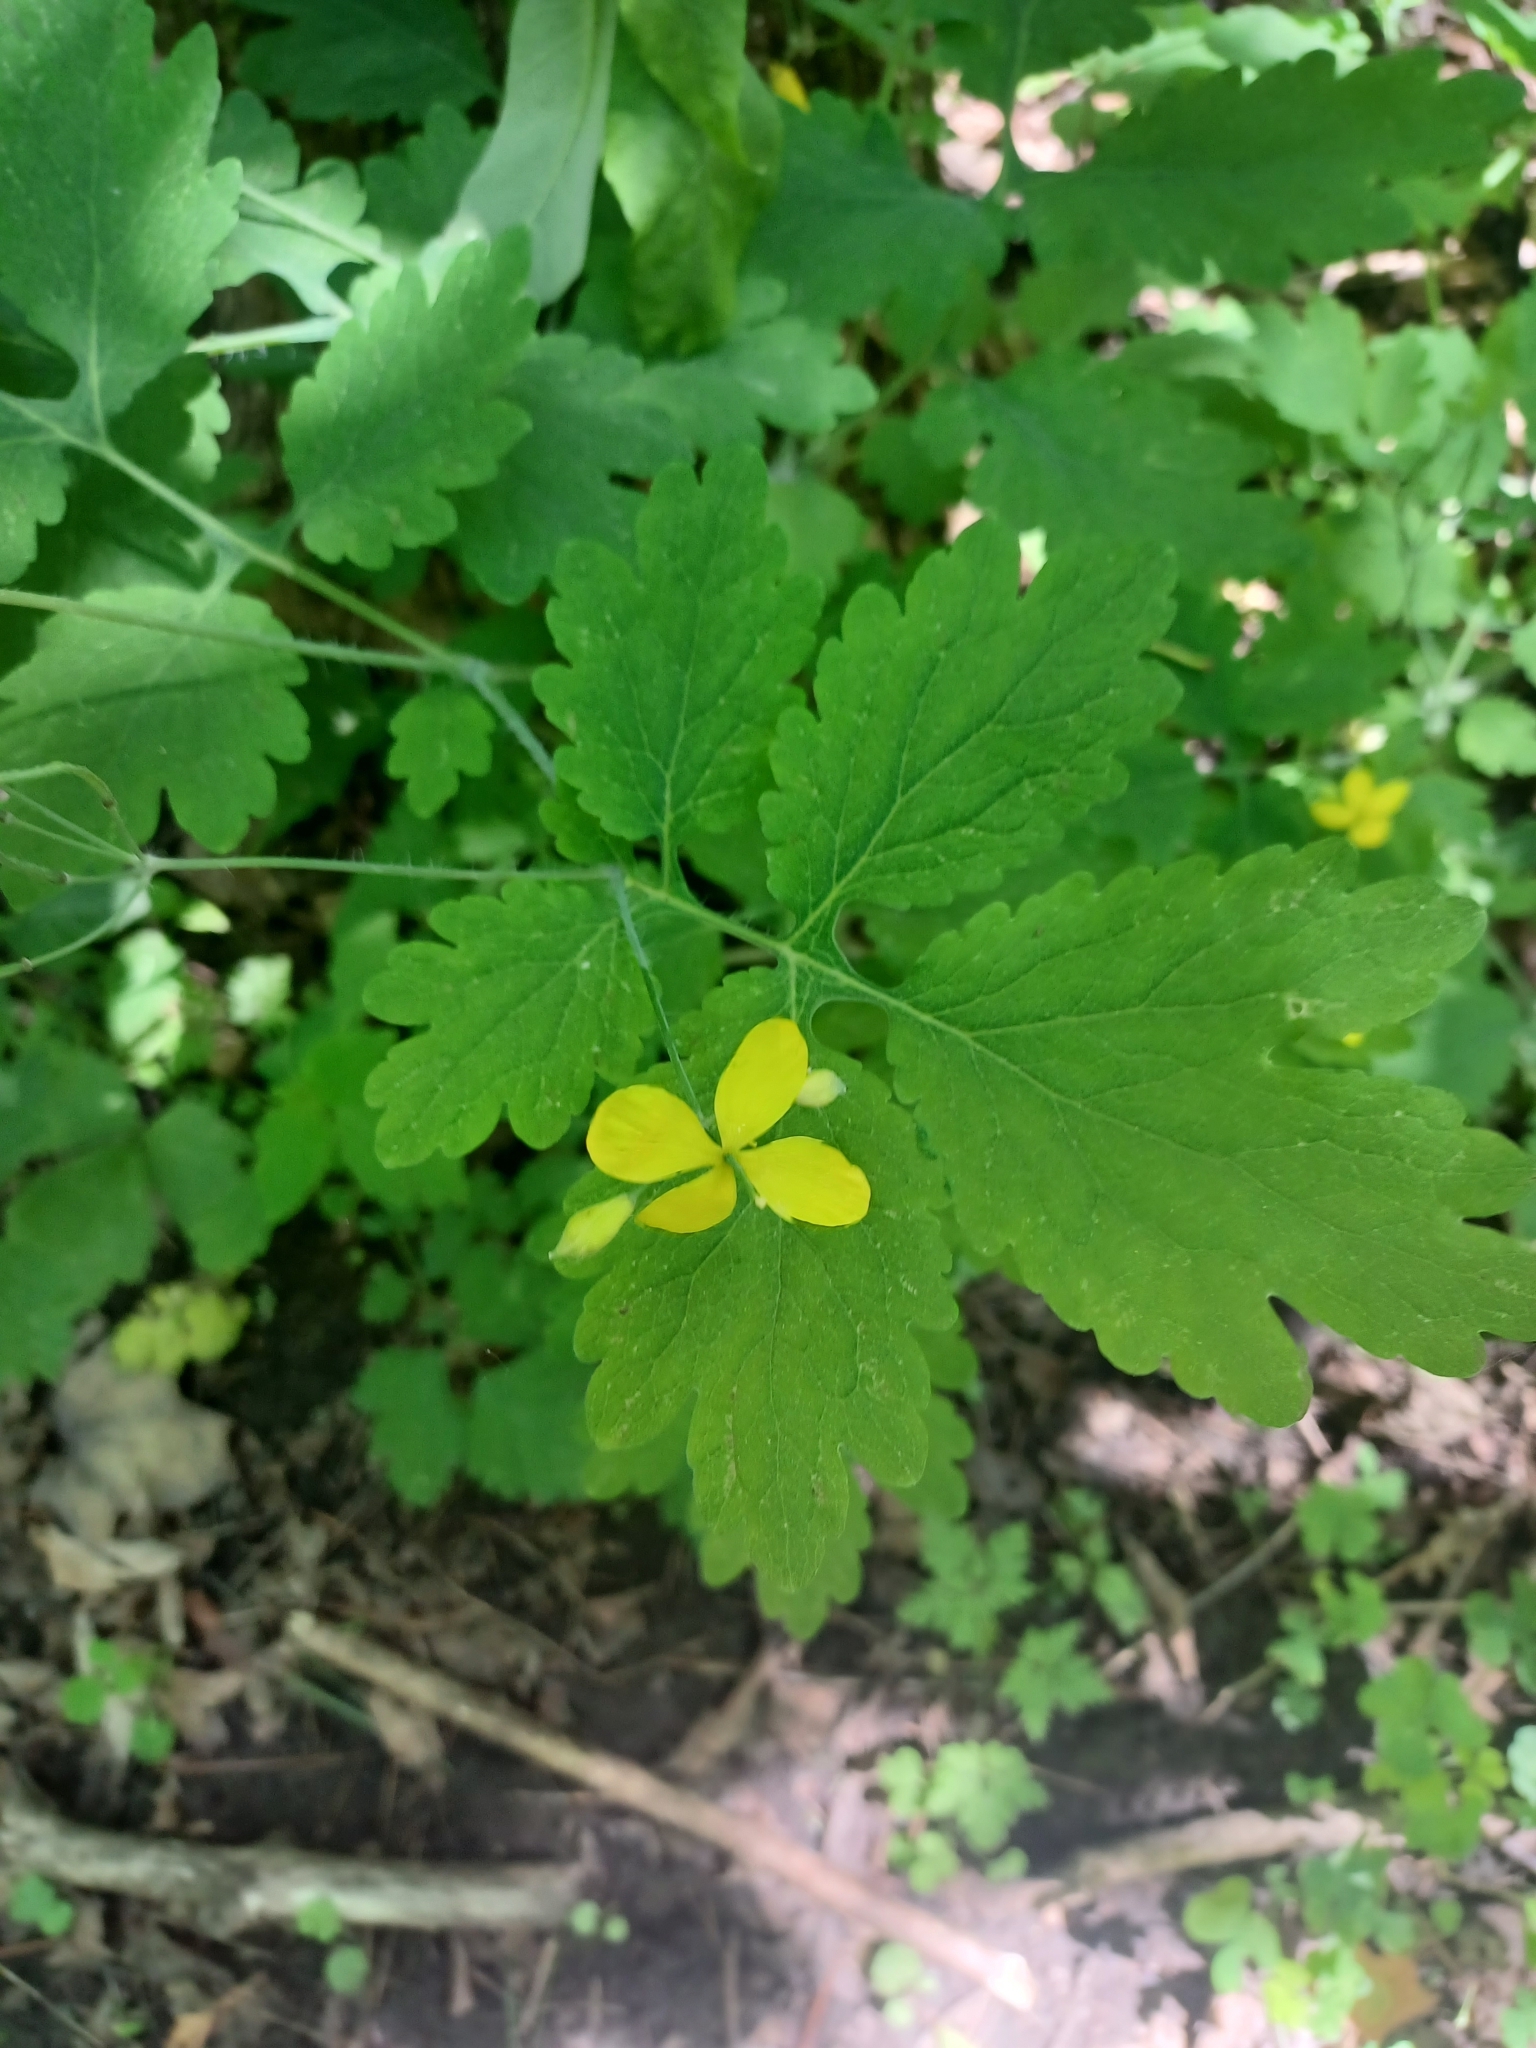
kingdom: Plantae
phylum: Tracheophyta
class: Magnoliopsida
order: Ranunculales
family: Papaveraceae
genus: Chelidonium
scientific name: Chelidonium majus
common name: Greater celandine
